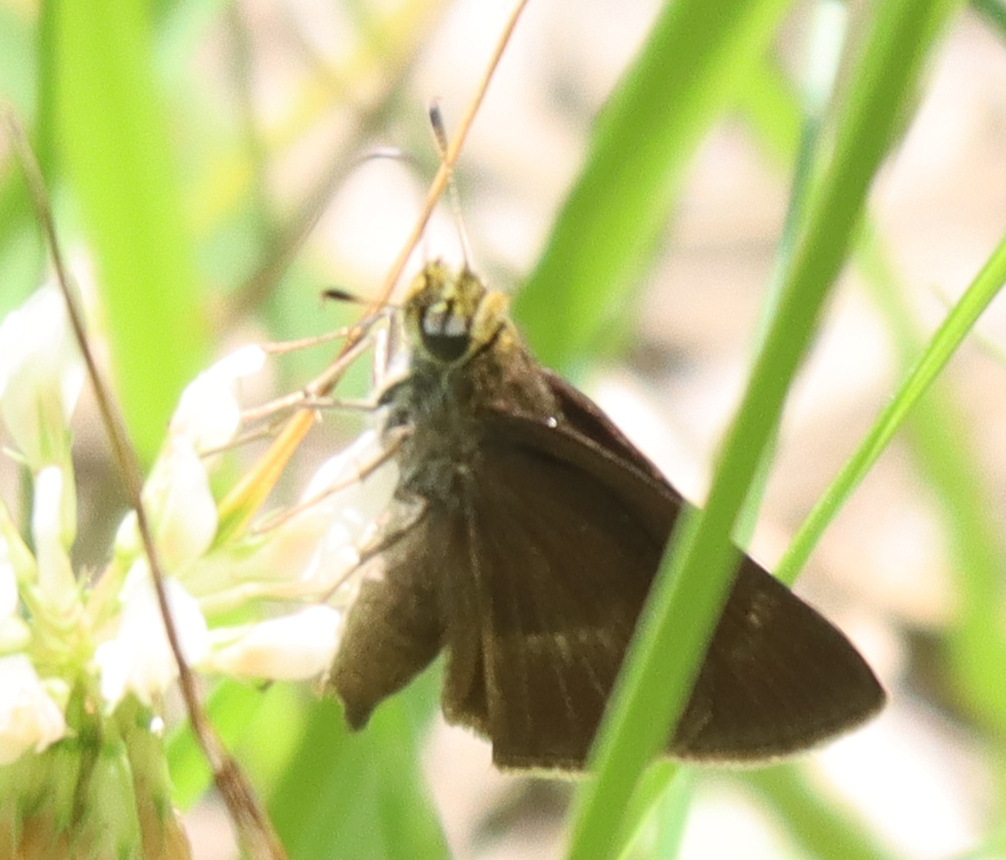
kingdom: Animalia
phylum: Arthropoda
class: Insecta
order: Lepidoptera
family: Hesperiidae
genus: Euphyes
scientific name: Euphyes vestris
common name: Dun skipper
